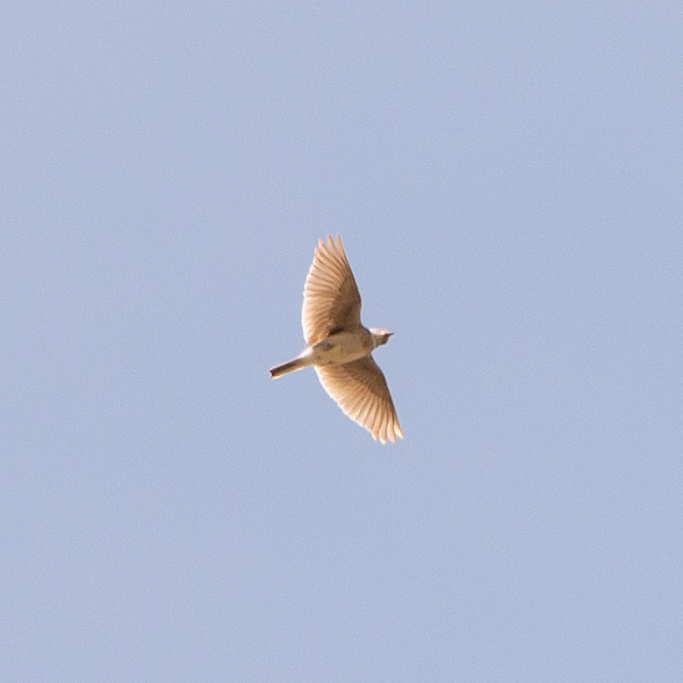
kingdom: Animalia
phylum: Chordata
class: Aves
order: Passeriformes
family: Alaudidae
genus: Alauda
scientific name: Alauda arvensis
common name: Eurasian skylark
